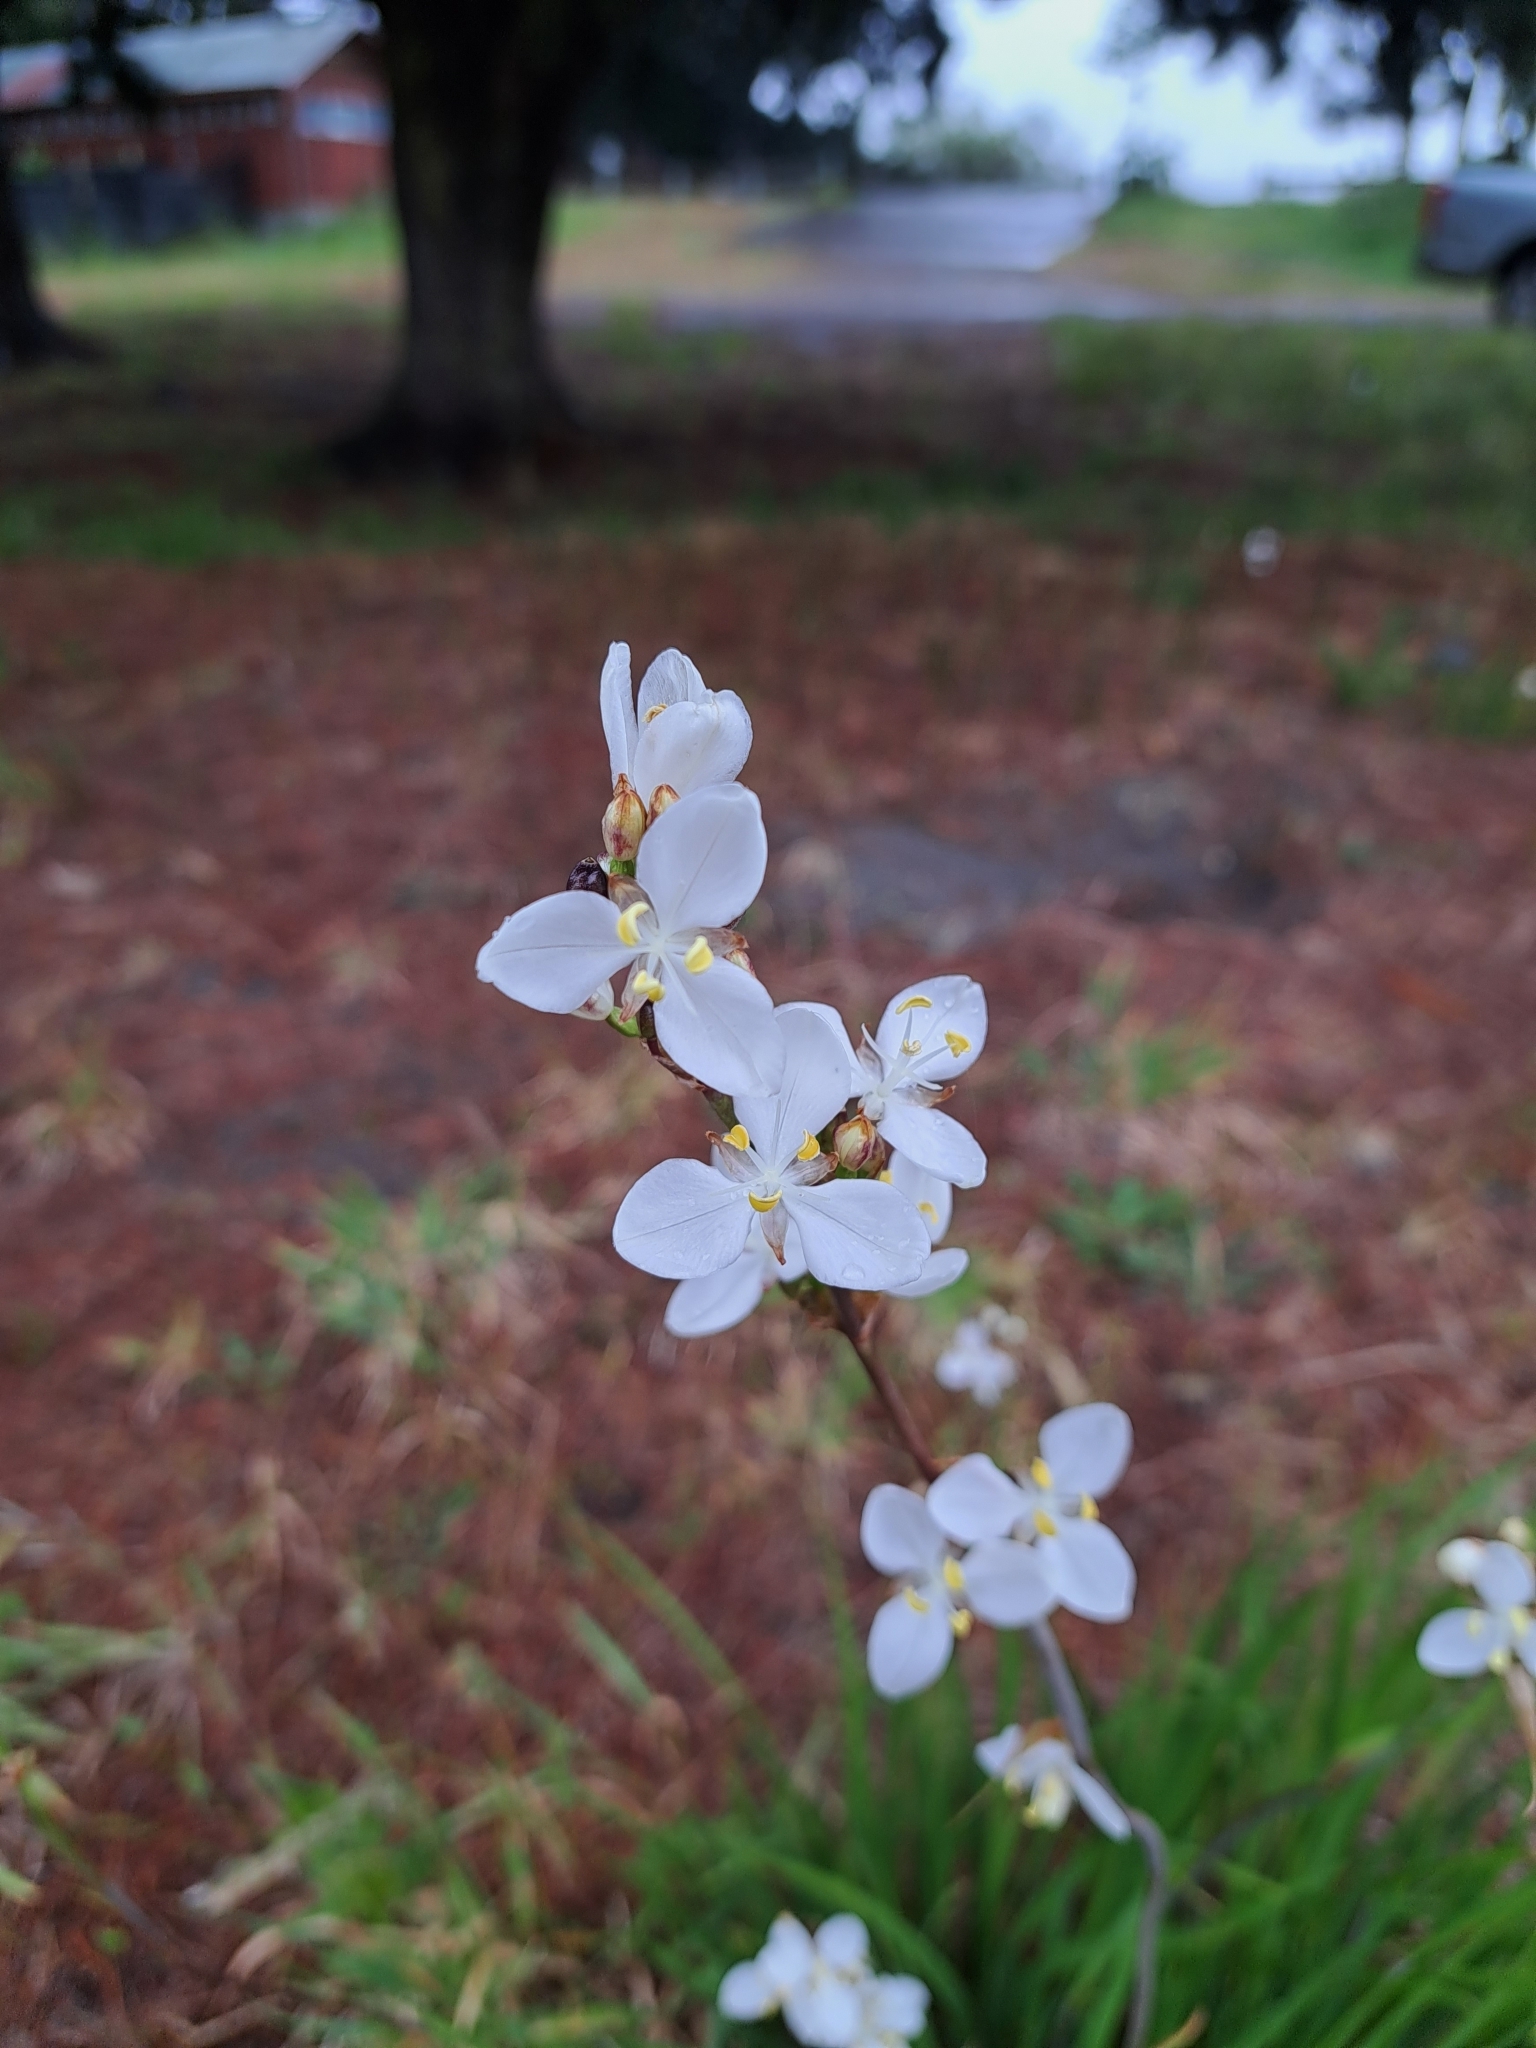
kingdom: Plantae
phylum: Tracheophyta
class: Liliopsida
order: Asparagales
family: Iridaceae
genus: Libertia
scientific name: Libertia chilensis
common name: Satin flower
